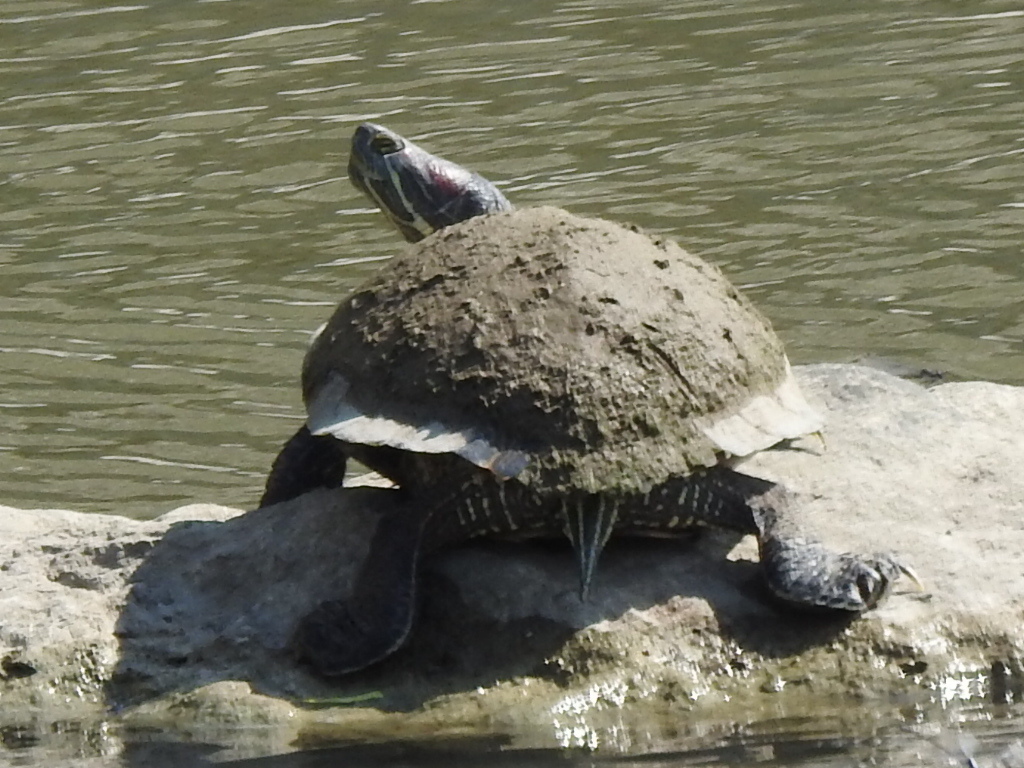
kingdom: Animalia
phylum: Chordata
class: Testudines
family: Emydidae
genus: Trachemys
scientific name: Trachemys scripta
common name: Slider
